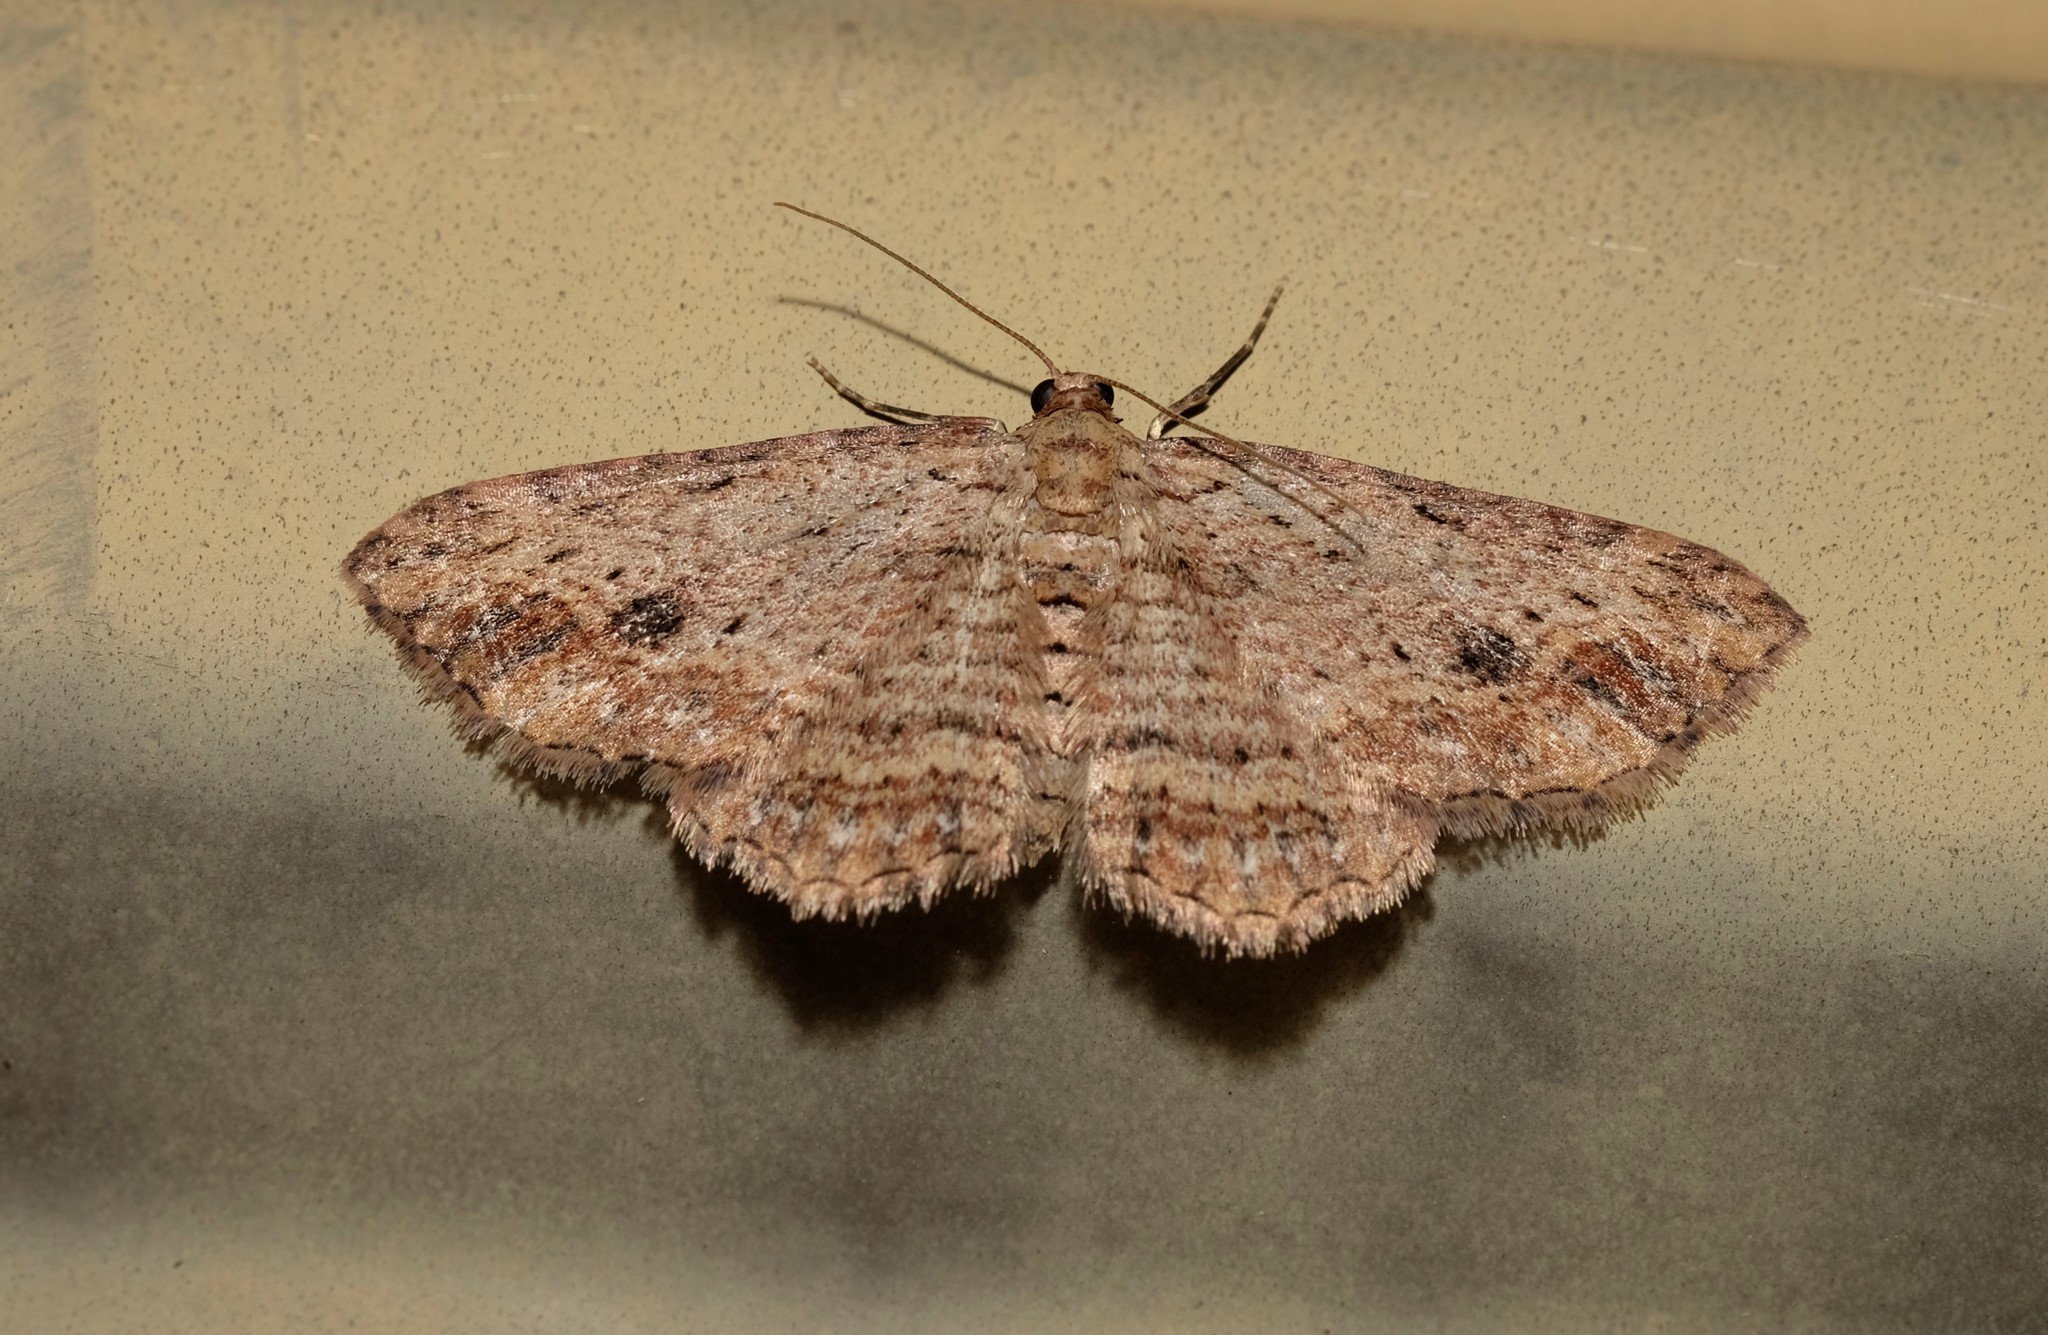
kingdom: Animalia
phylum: Arthropoda
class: Insecta
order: Lepidoptera
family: Geometridae
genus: Xanthorhoe
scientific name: Xanthorhoe anaspila
